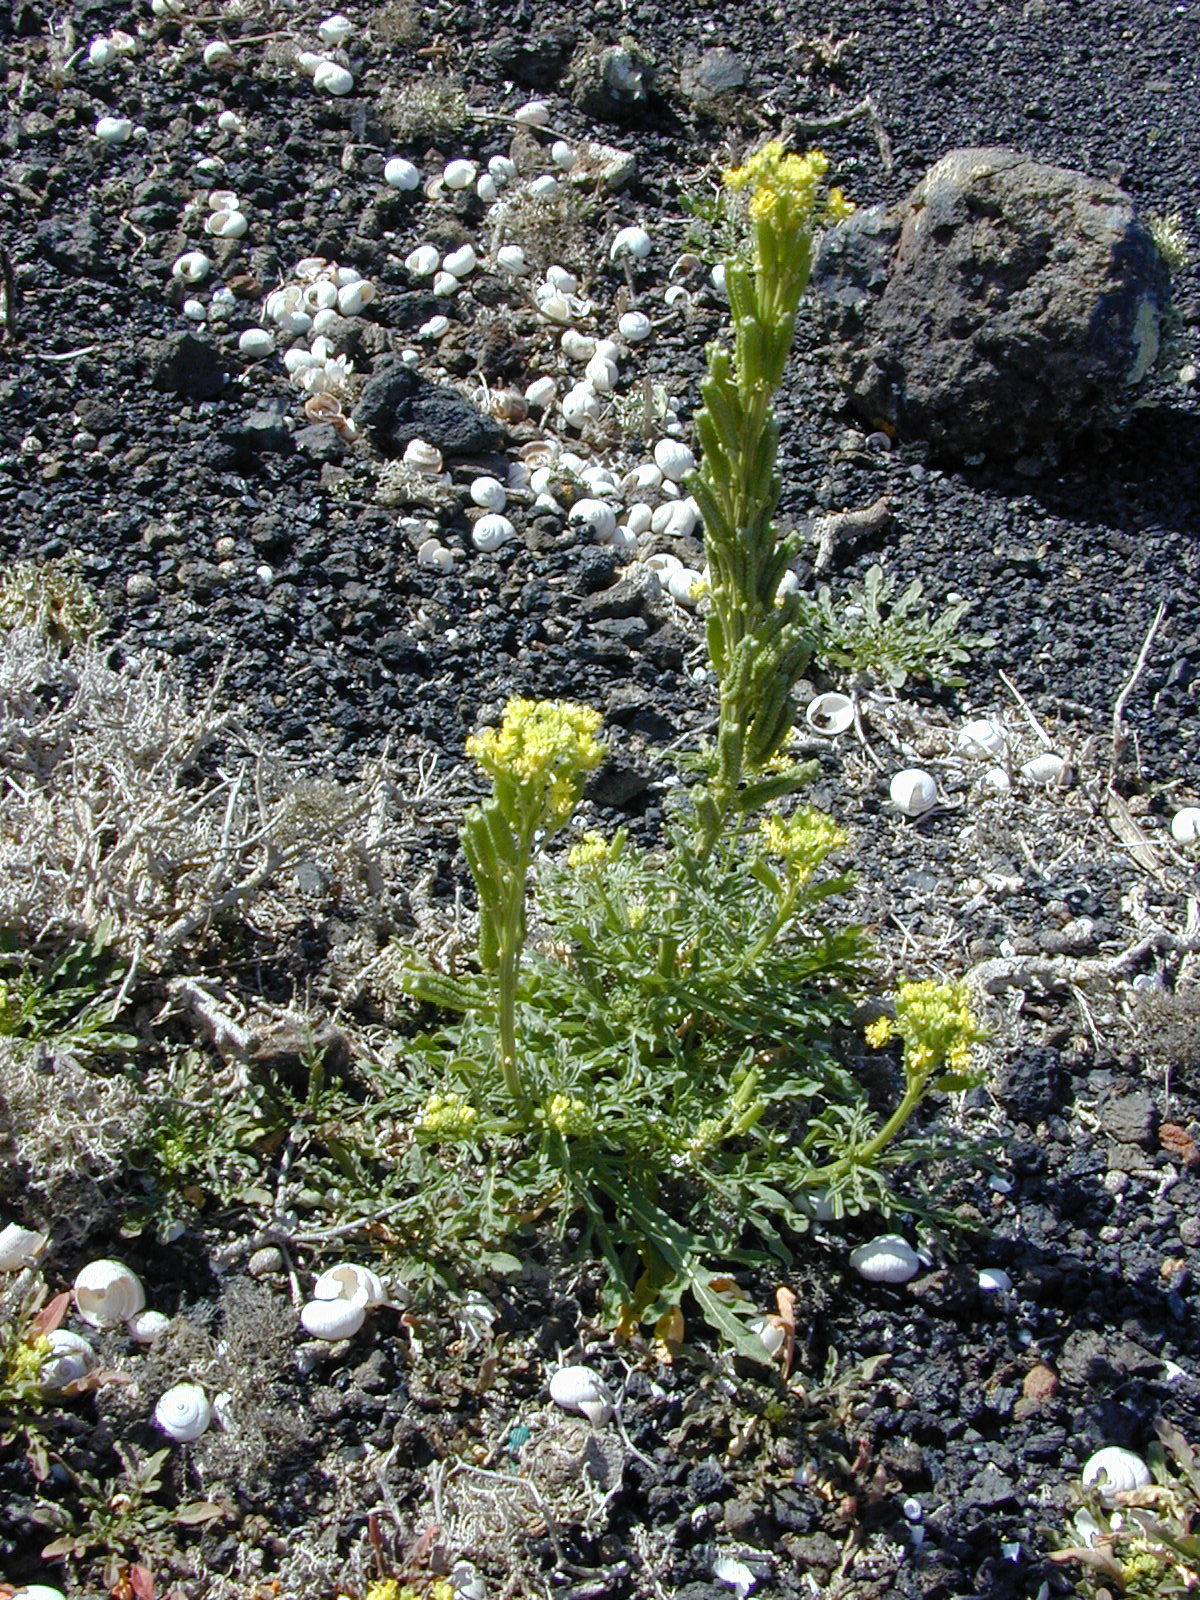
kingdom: Plantae
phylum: Tracheophyta
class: Magnoliopsida
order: Brassicales
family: Resedaceae
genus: Reseda
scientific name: Reseda crystallina
